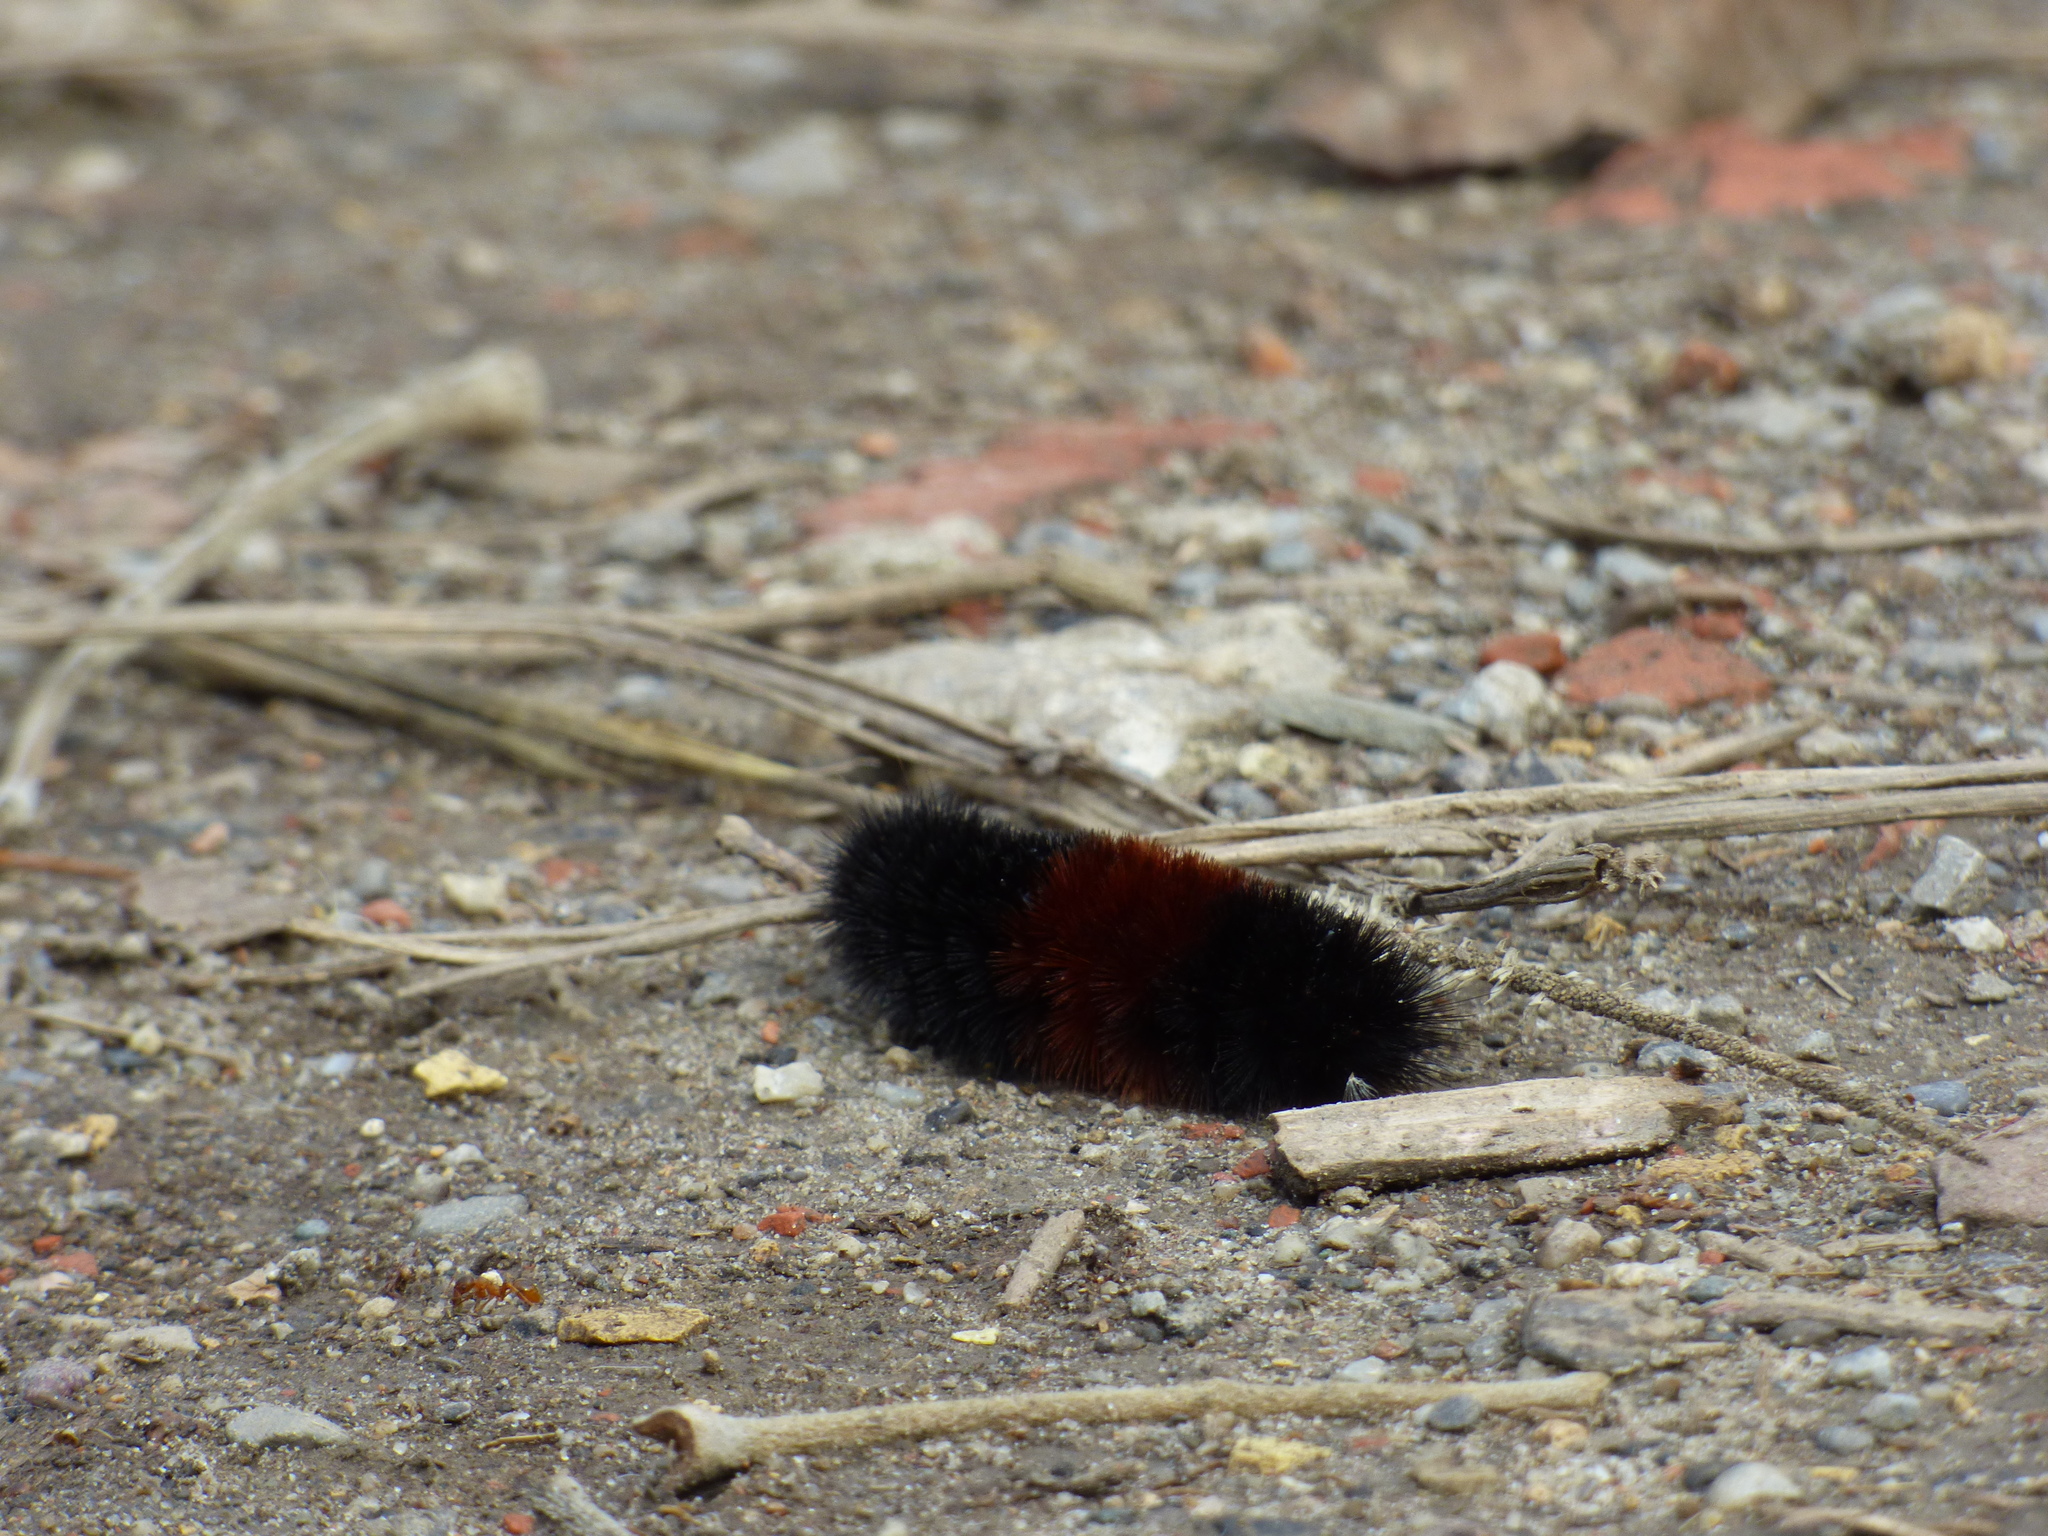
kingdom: Animalia
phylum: Arthropoda
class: Insecta
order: Lepidoptera
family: Erebidae
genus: Pyrrharctia
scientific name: Pyrrharctia isabella
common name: Isabella tiger moth
